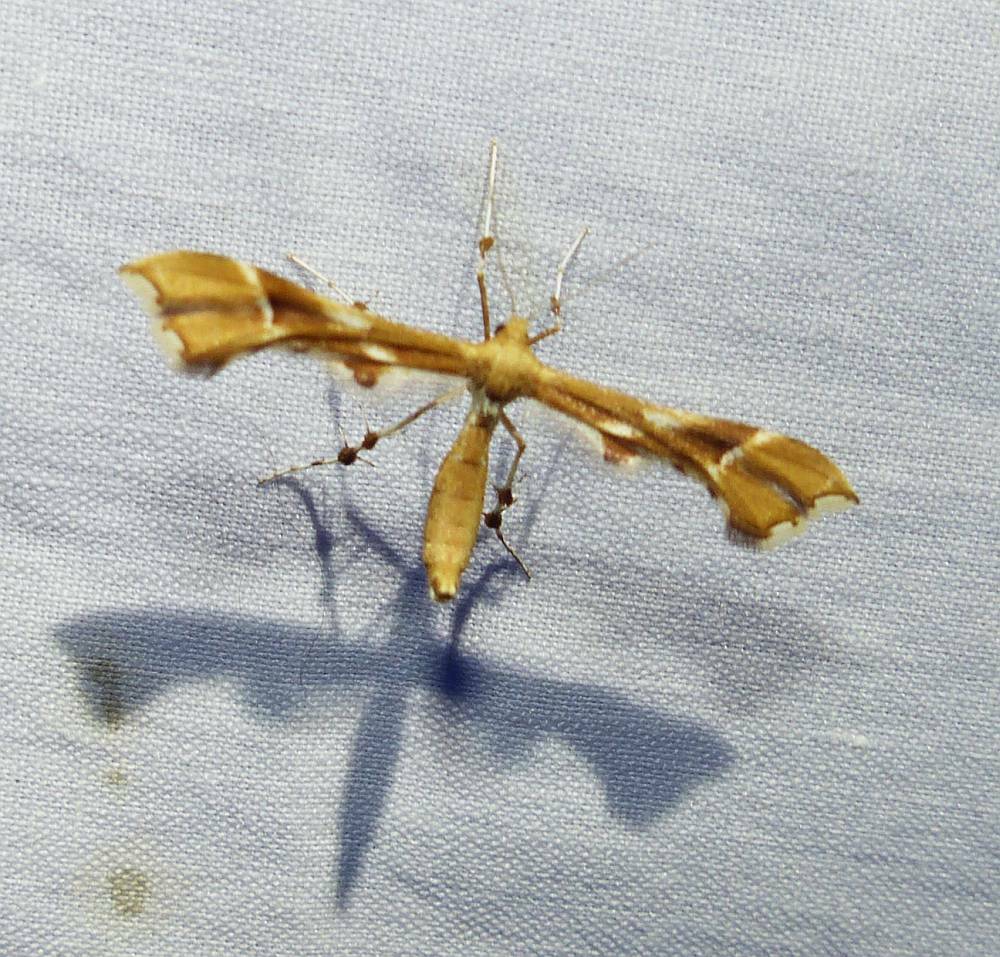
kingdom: Animalia
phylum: Arthropoda
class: Insecta
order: Lepidoptera
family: Pterophoridae
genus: Cnaemidophorus
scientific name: Cnaemidophorus rhododactyla
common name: Rose plume
